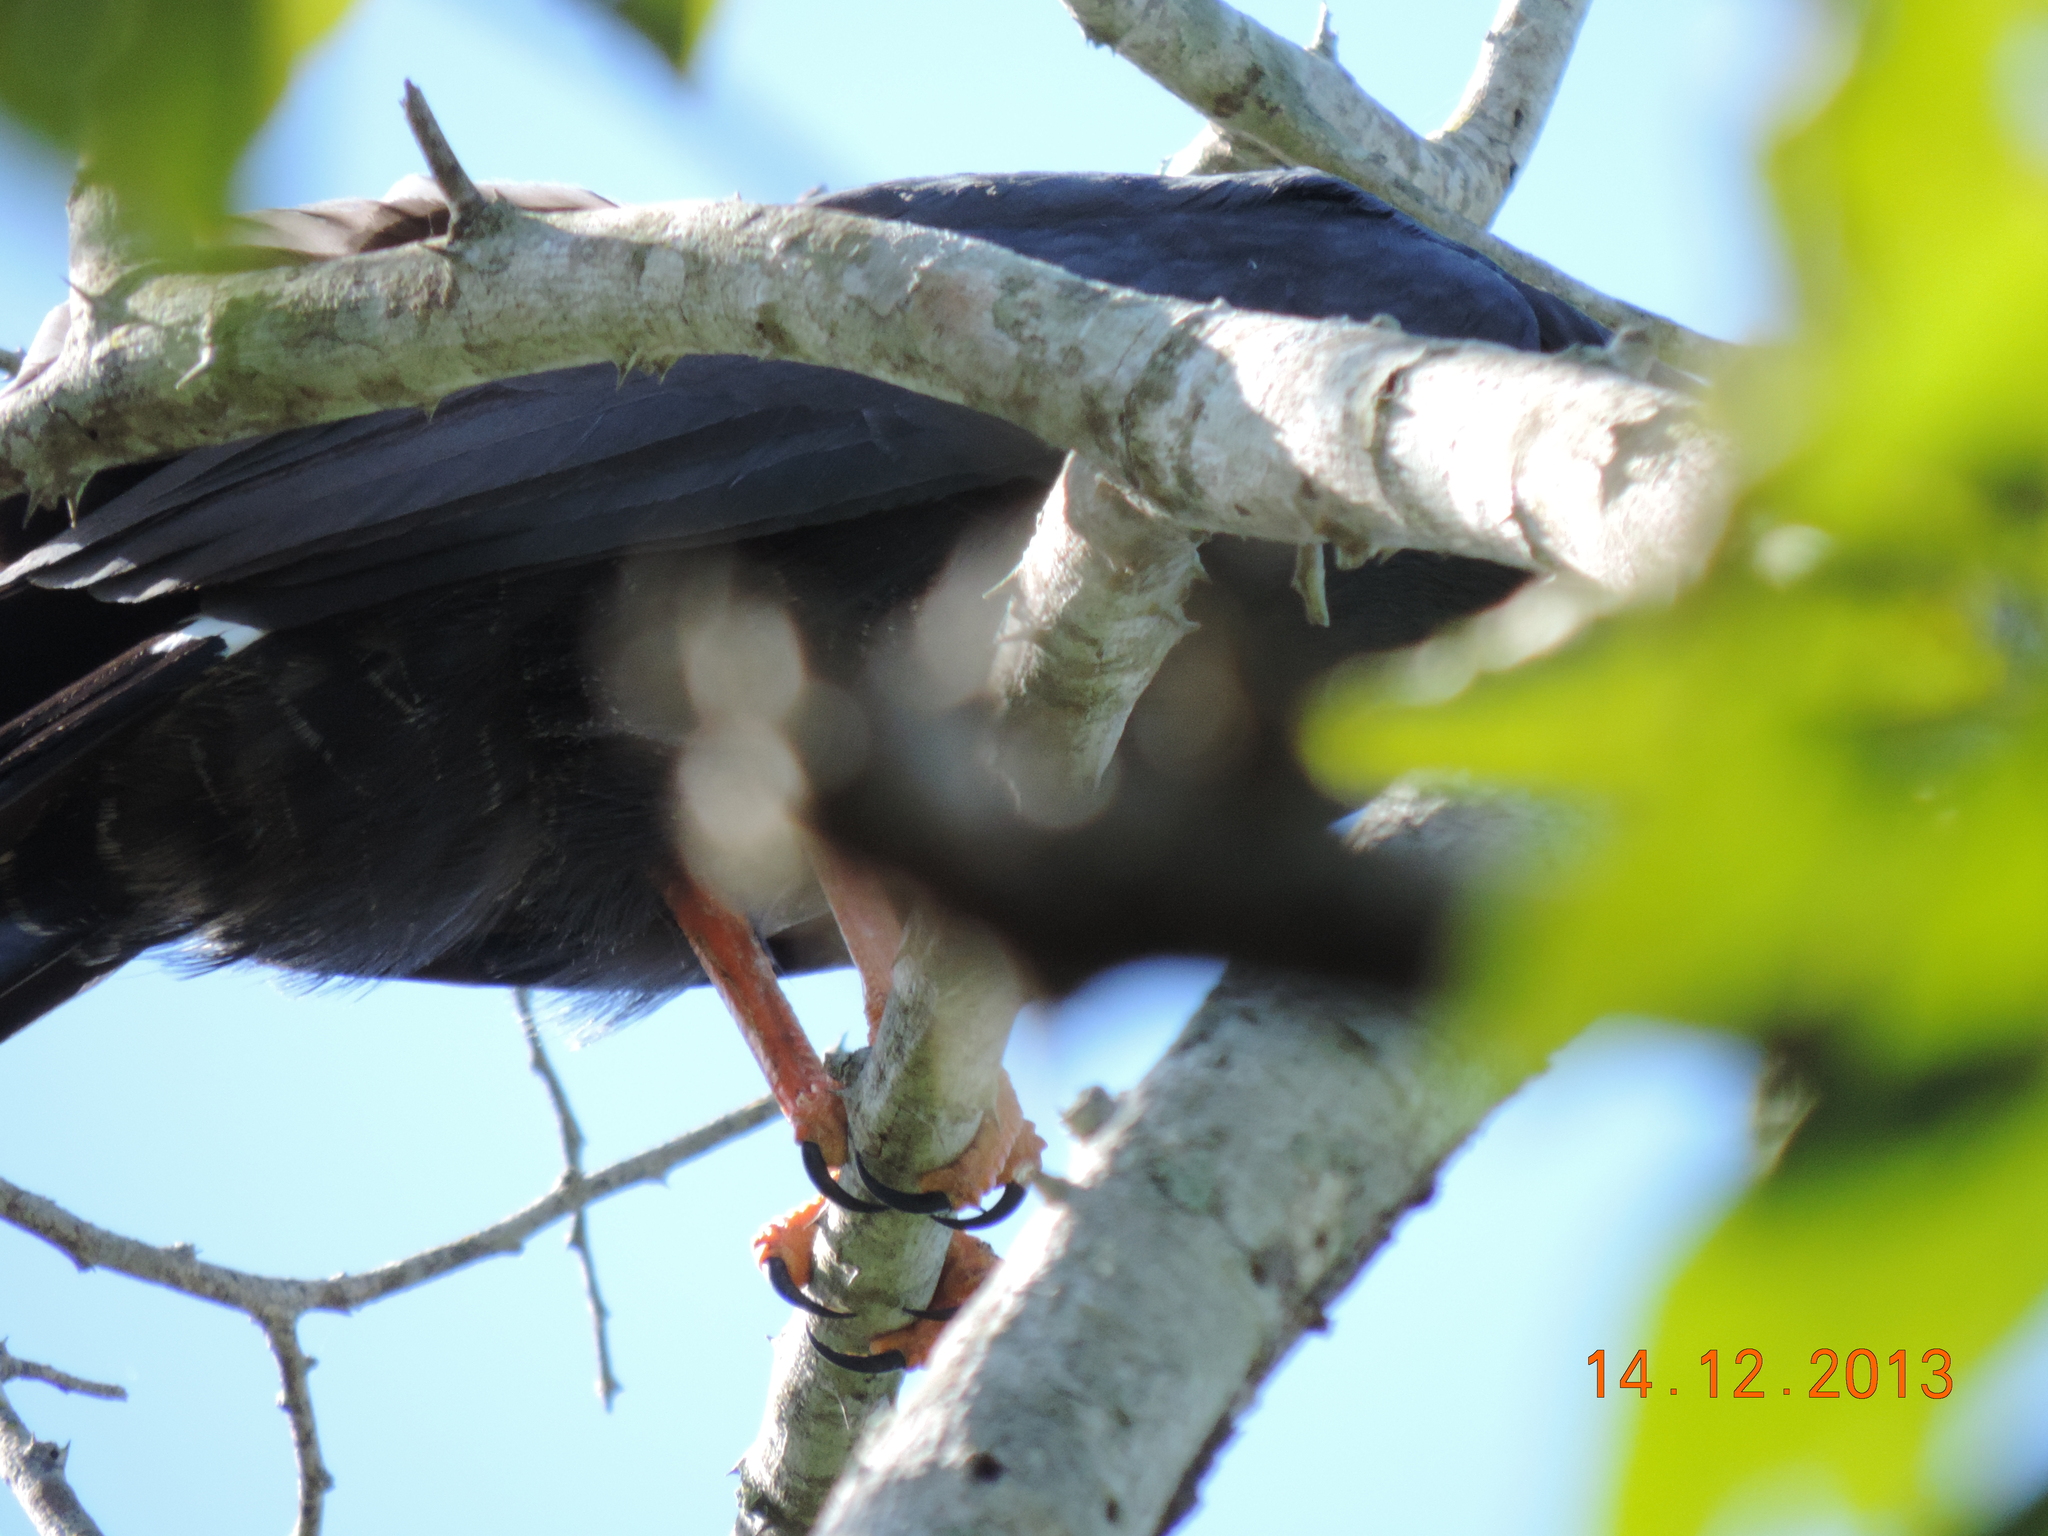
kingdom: Animalia
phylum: Chordata
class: Aves
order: Accipitriformes
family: Accipitridae
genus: Geranospiza
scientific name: Geranospiza caerulescens
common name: Crane hawk
